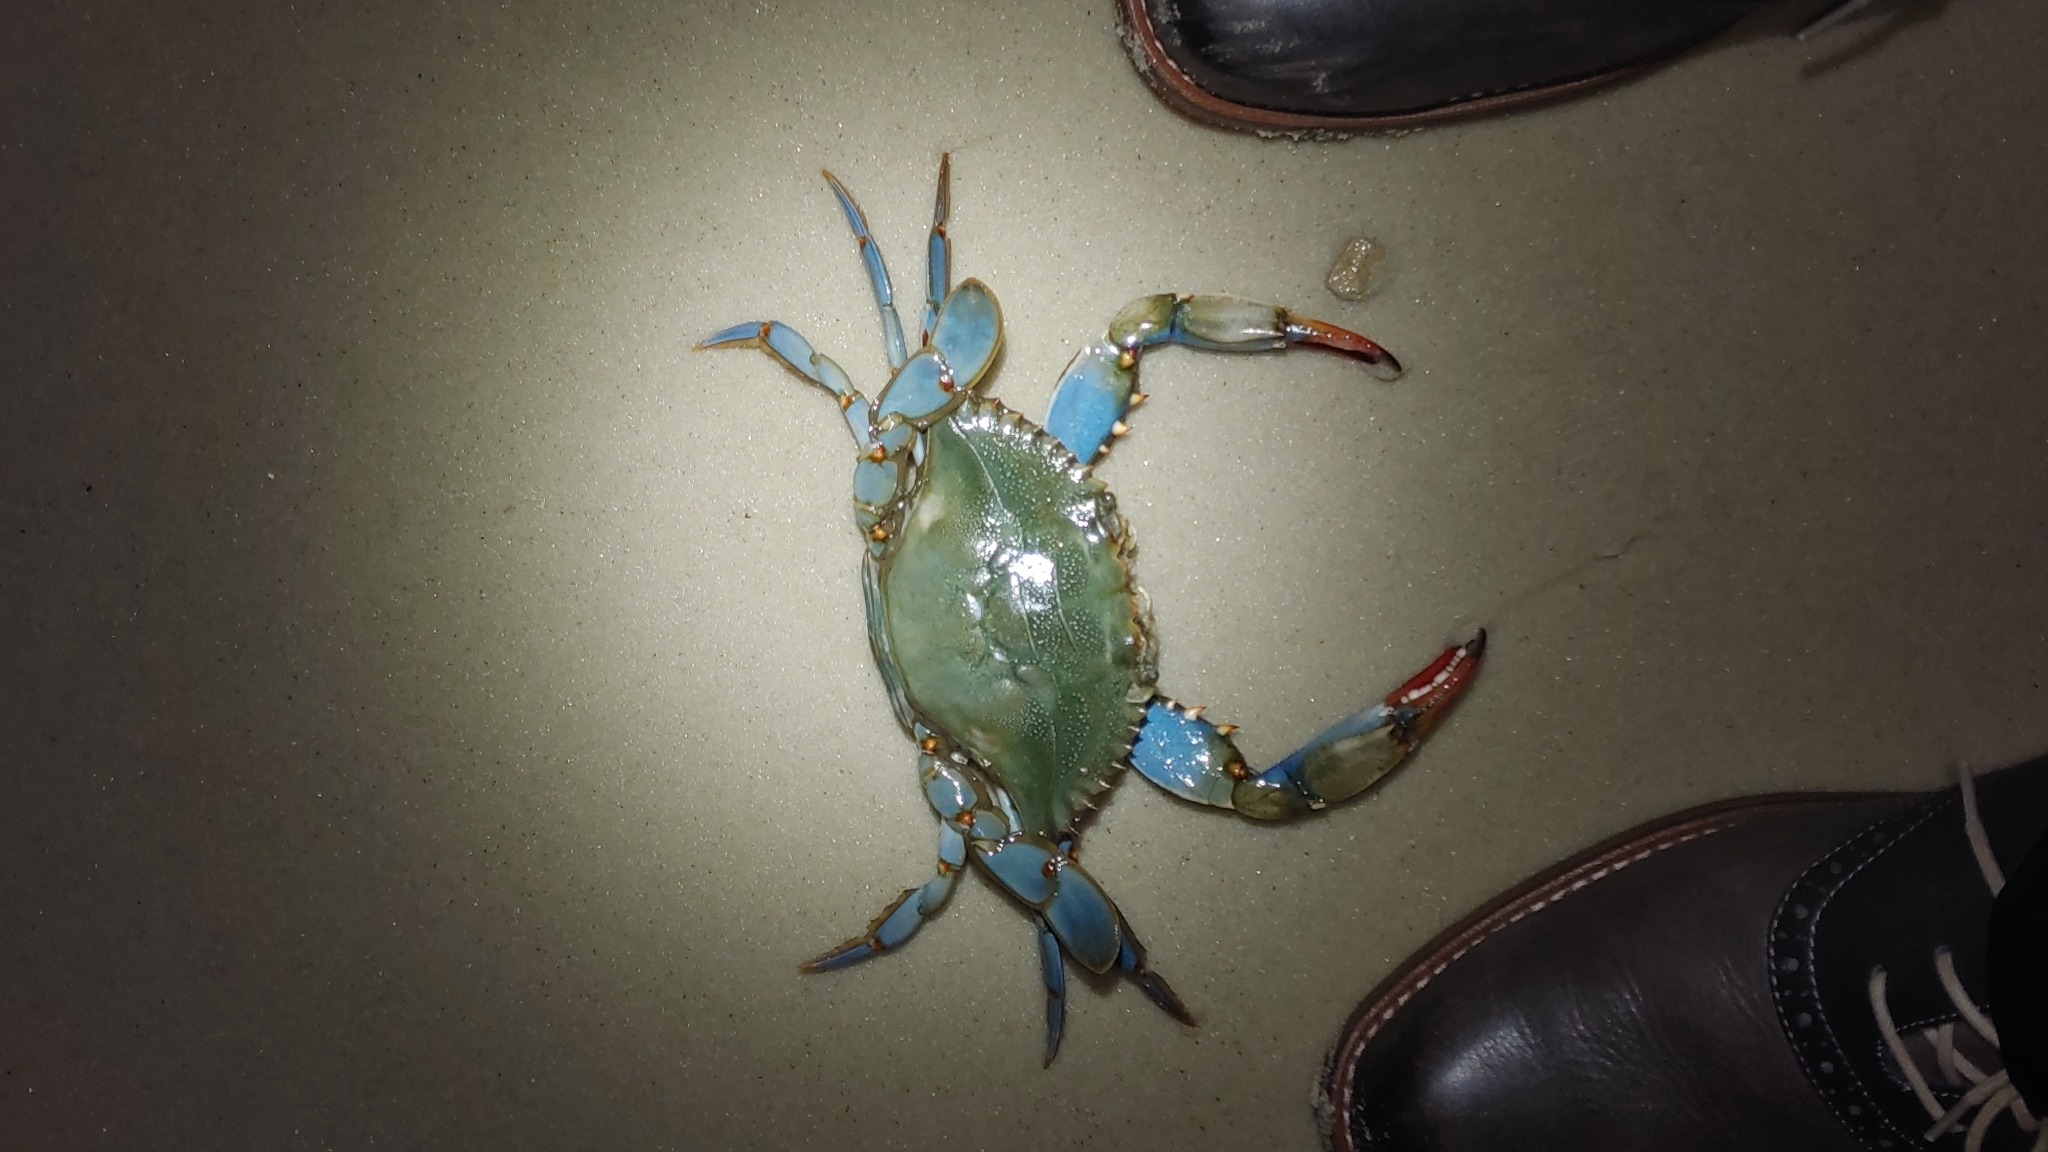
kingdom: Animalia
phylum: Arthropoda
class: Malacostraca
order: Decapoda
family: Portunidae
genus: Callinectes
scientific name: Callinectes sapidus
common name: Blue crab
